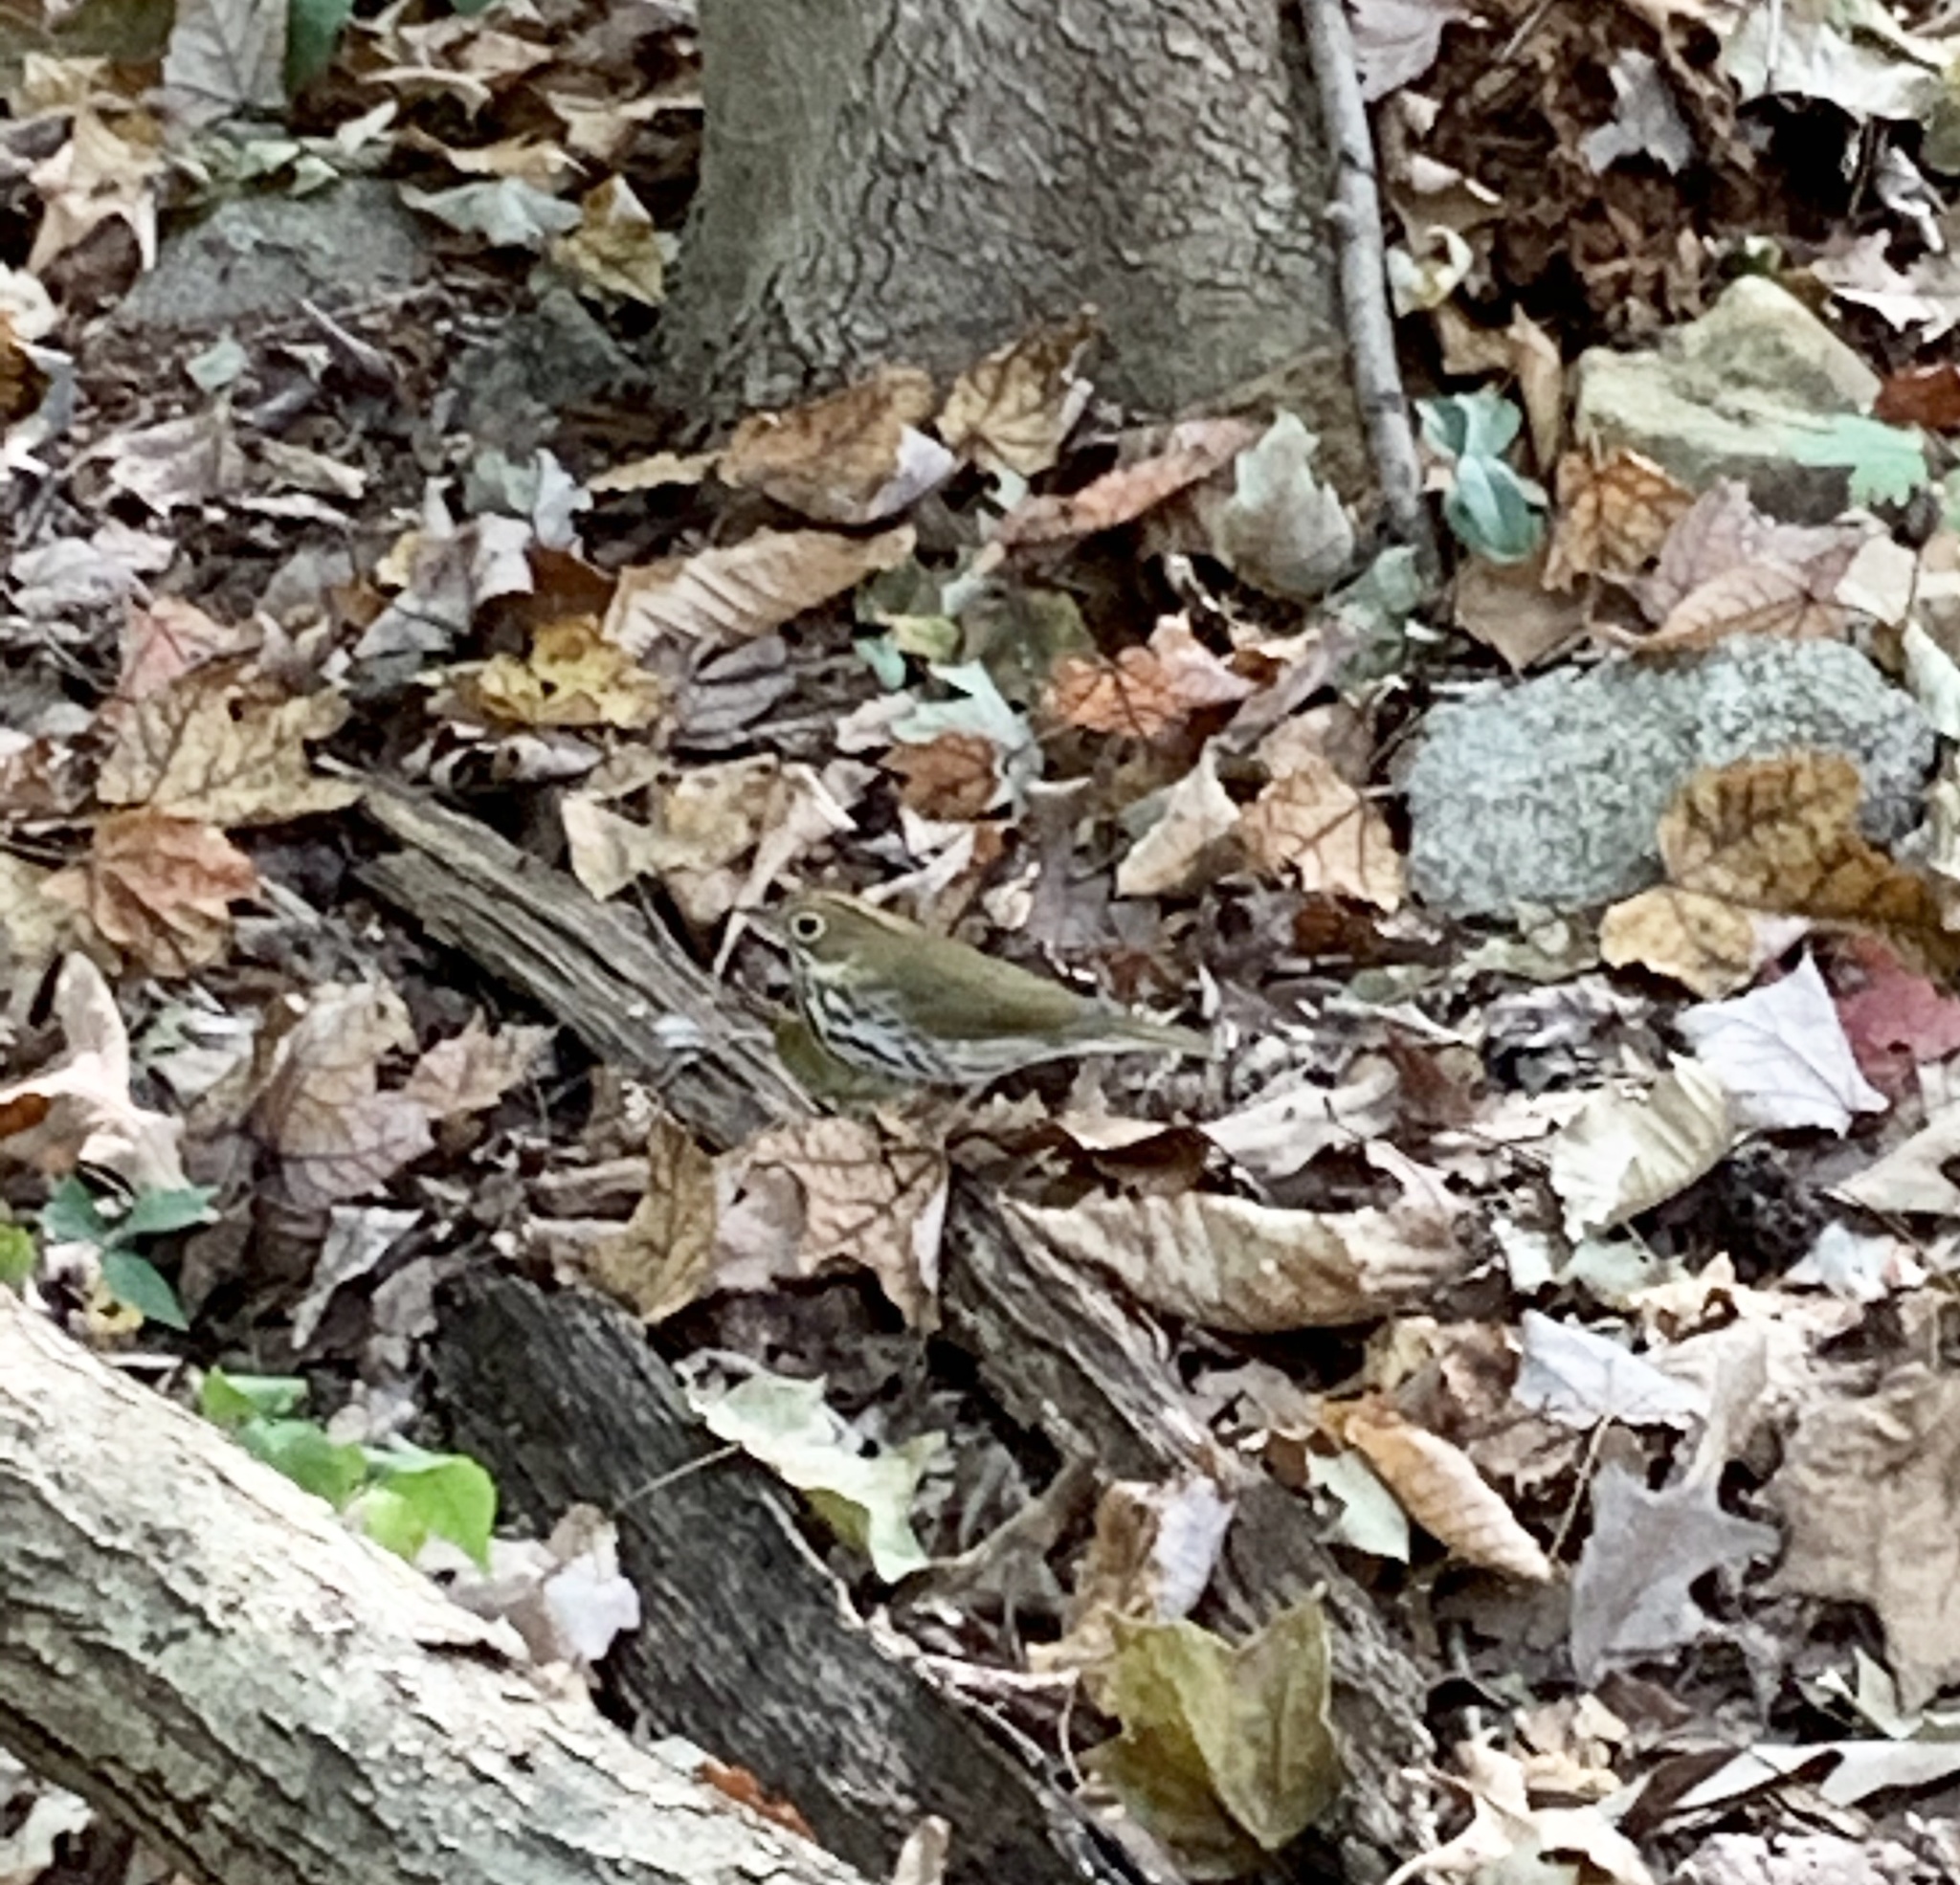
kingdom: Animalia
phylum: Chordata
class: Aves
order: Passeriformes
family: Parulidae
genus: Seiurus
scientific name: Seiurus aurocapilla
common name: Ovenbird
